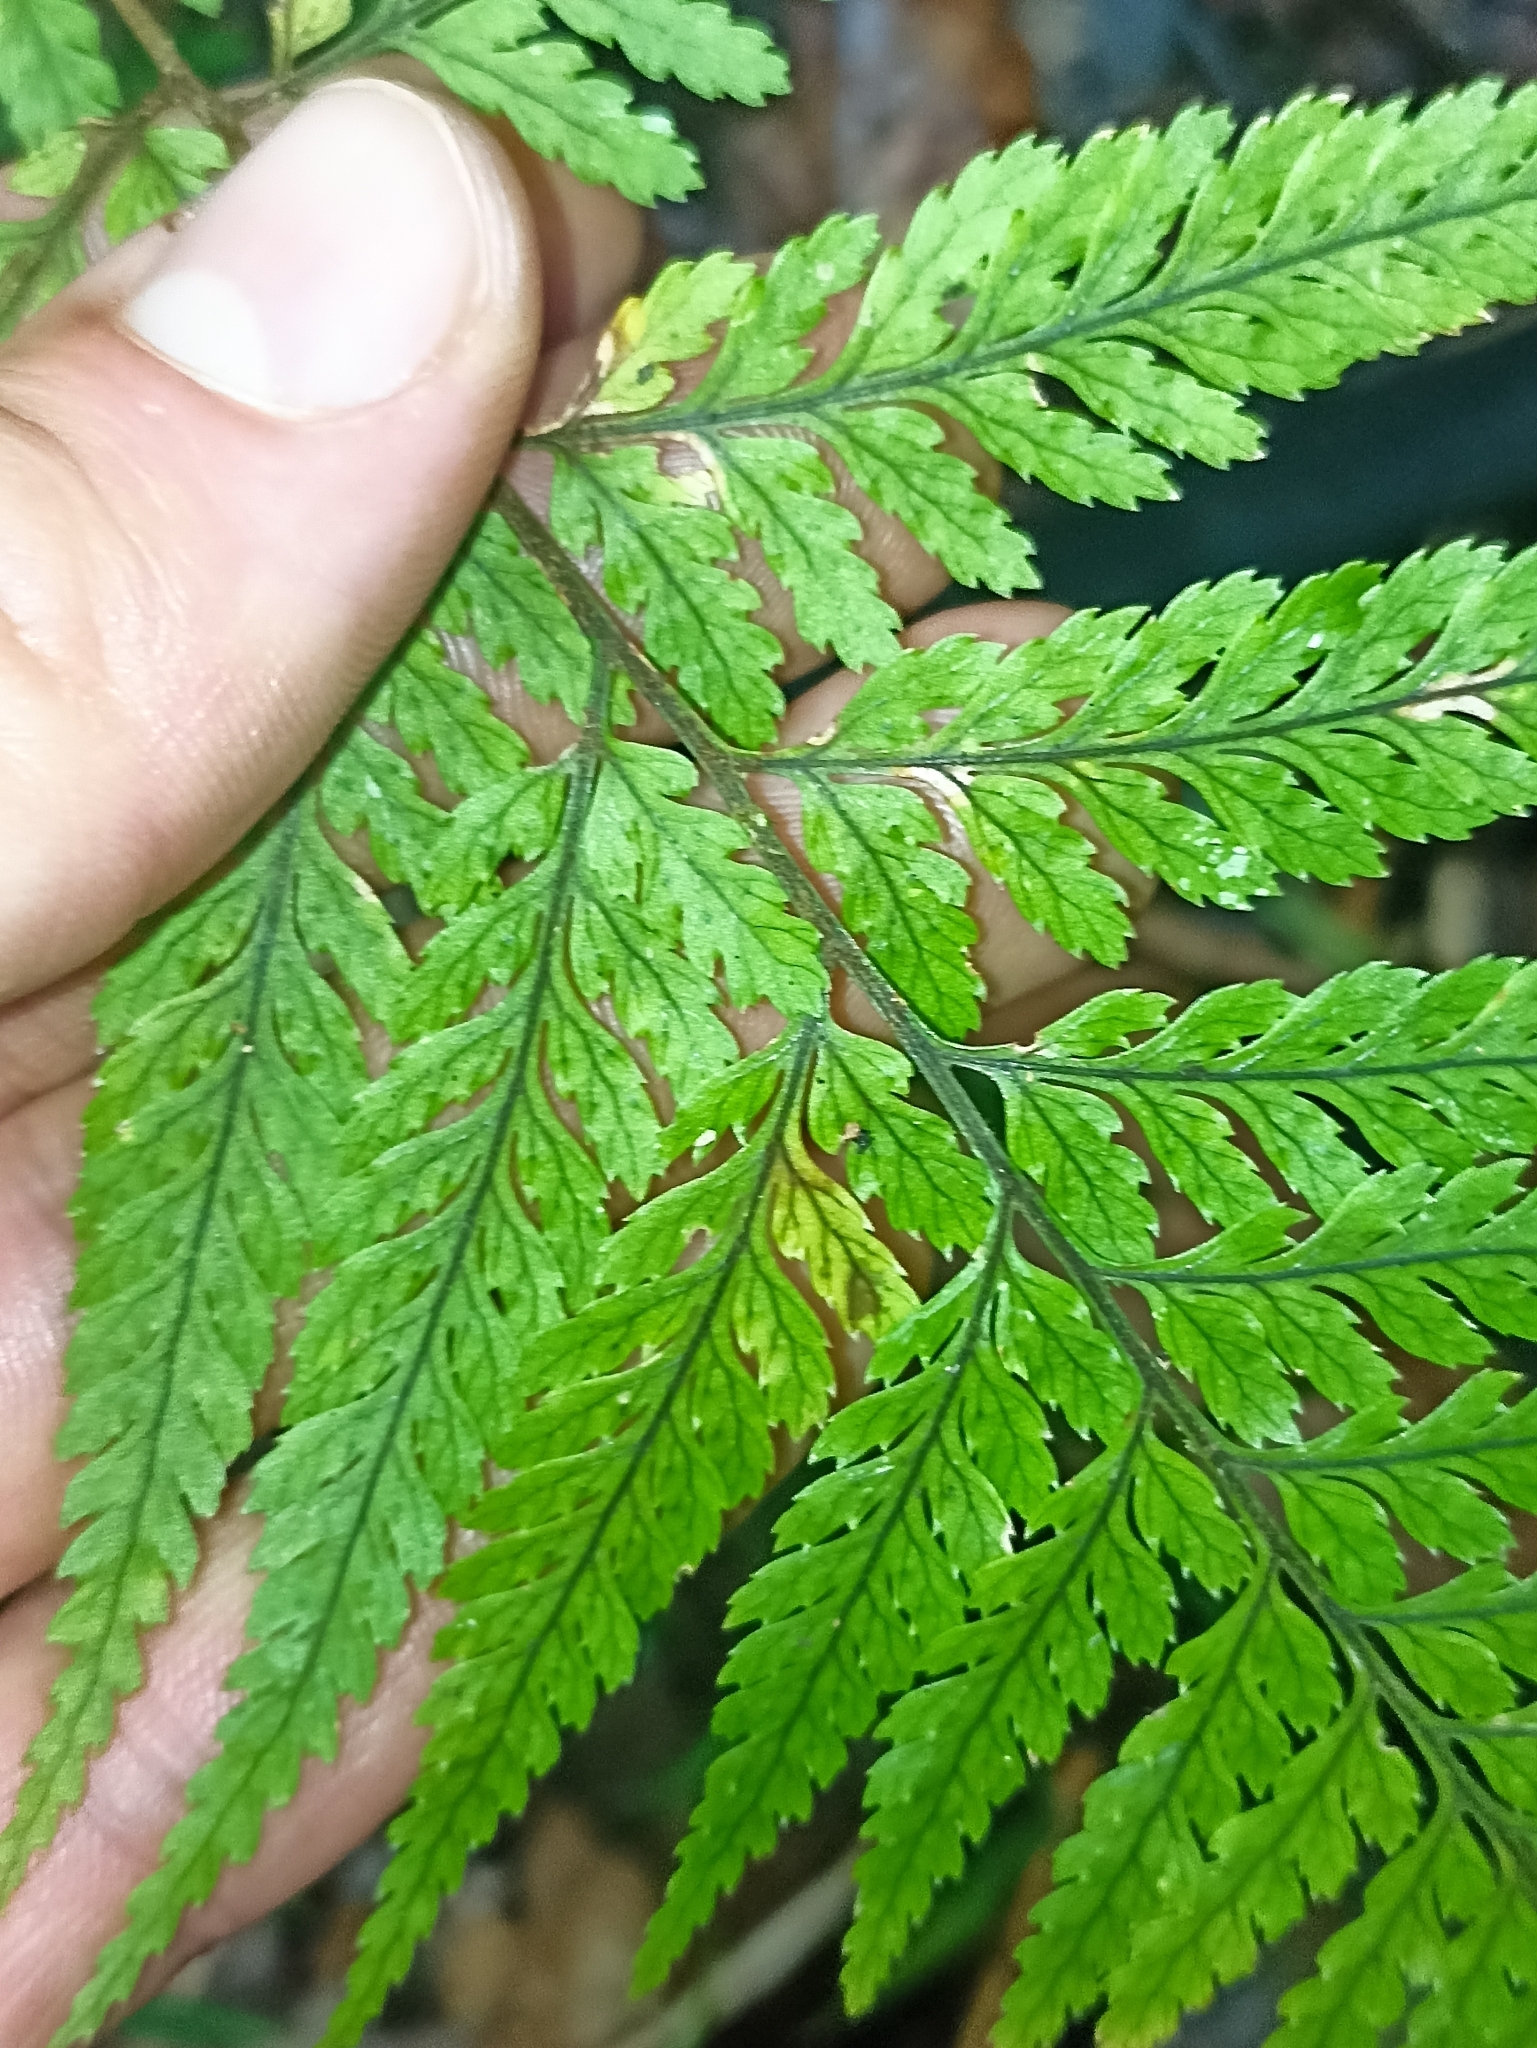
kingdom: Plantae
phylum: Tracheophyta
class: Polypodiopsida
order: Polypodiales
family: Dryopteridaceae
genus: Parapolystichum
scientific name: Parapolystichum glabellum
